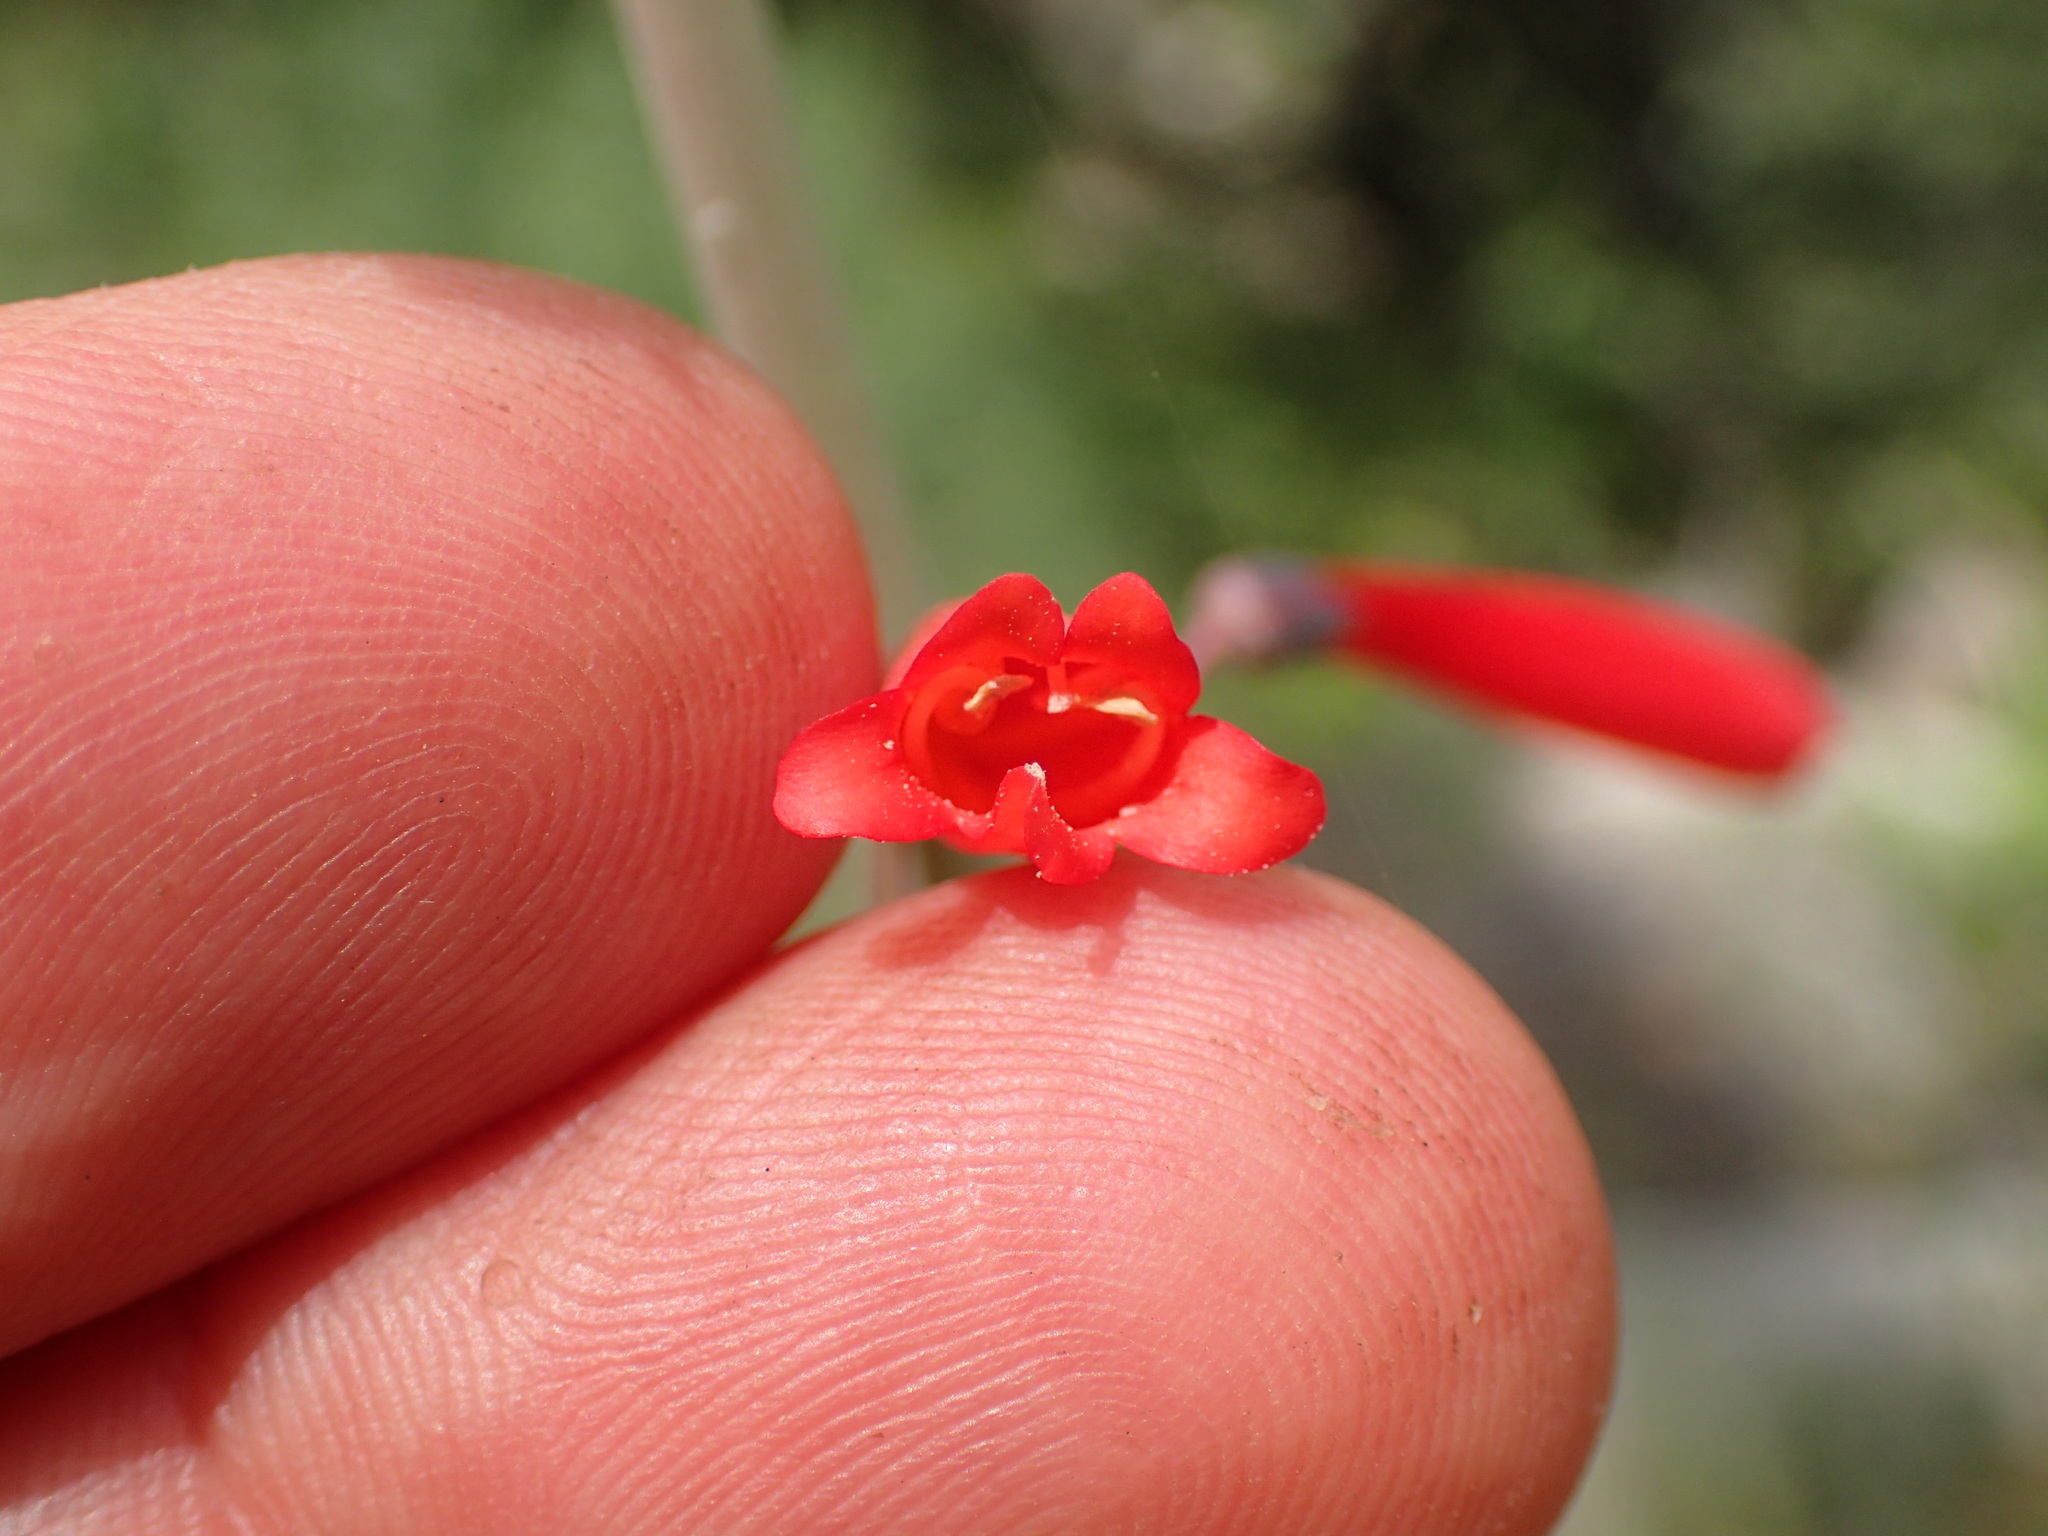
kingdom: Plantae
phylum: Tracheophyta
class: Magnoliopsida
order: Lamiales
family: Plantaginaceae
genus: Penstemon
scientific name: Penstemon centranthifolius
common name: Scarlet bugler
